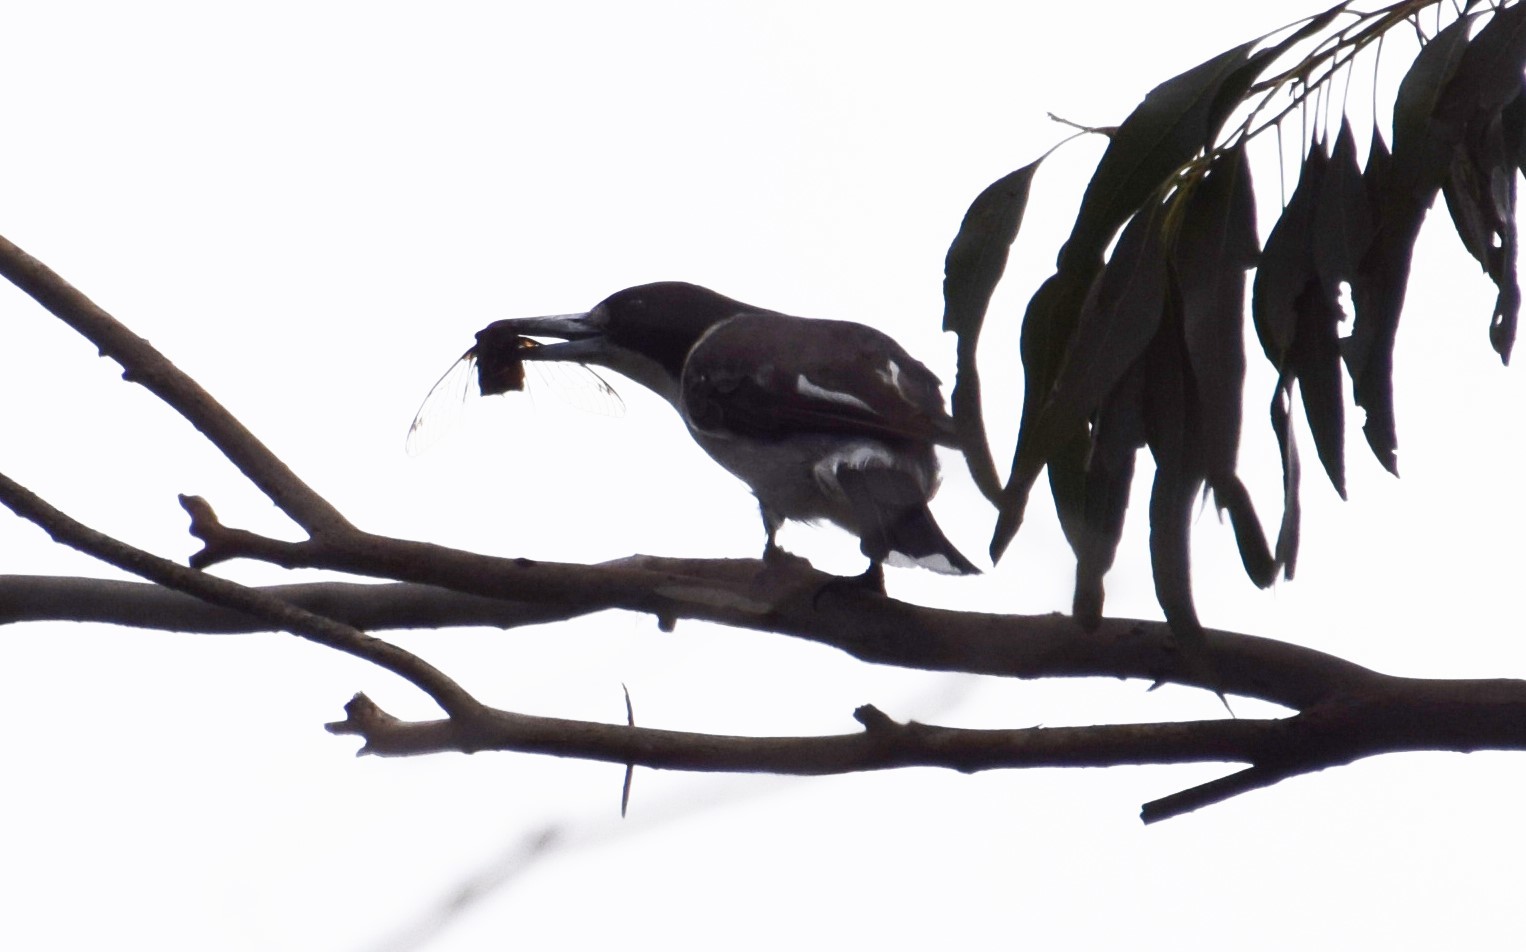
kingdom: Animalia
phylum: Chordata
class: Aves
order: Passeriformes
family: Cracticidae
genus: Cracticus
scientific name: Cracticus torquatus
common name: Grey butcherbird
